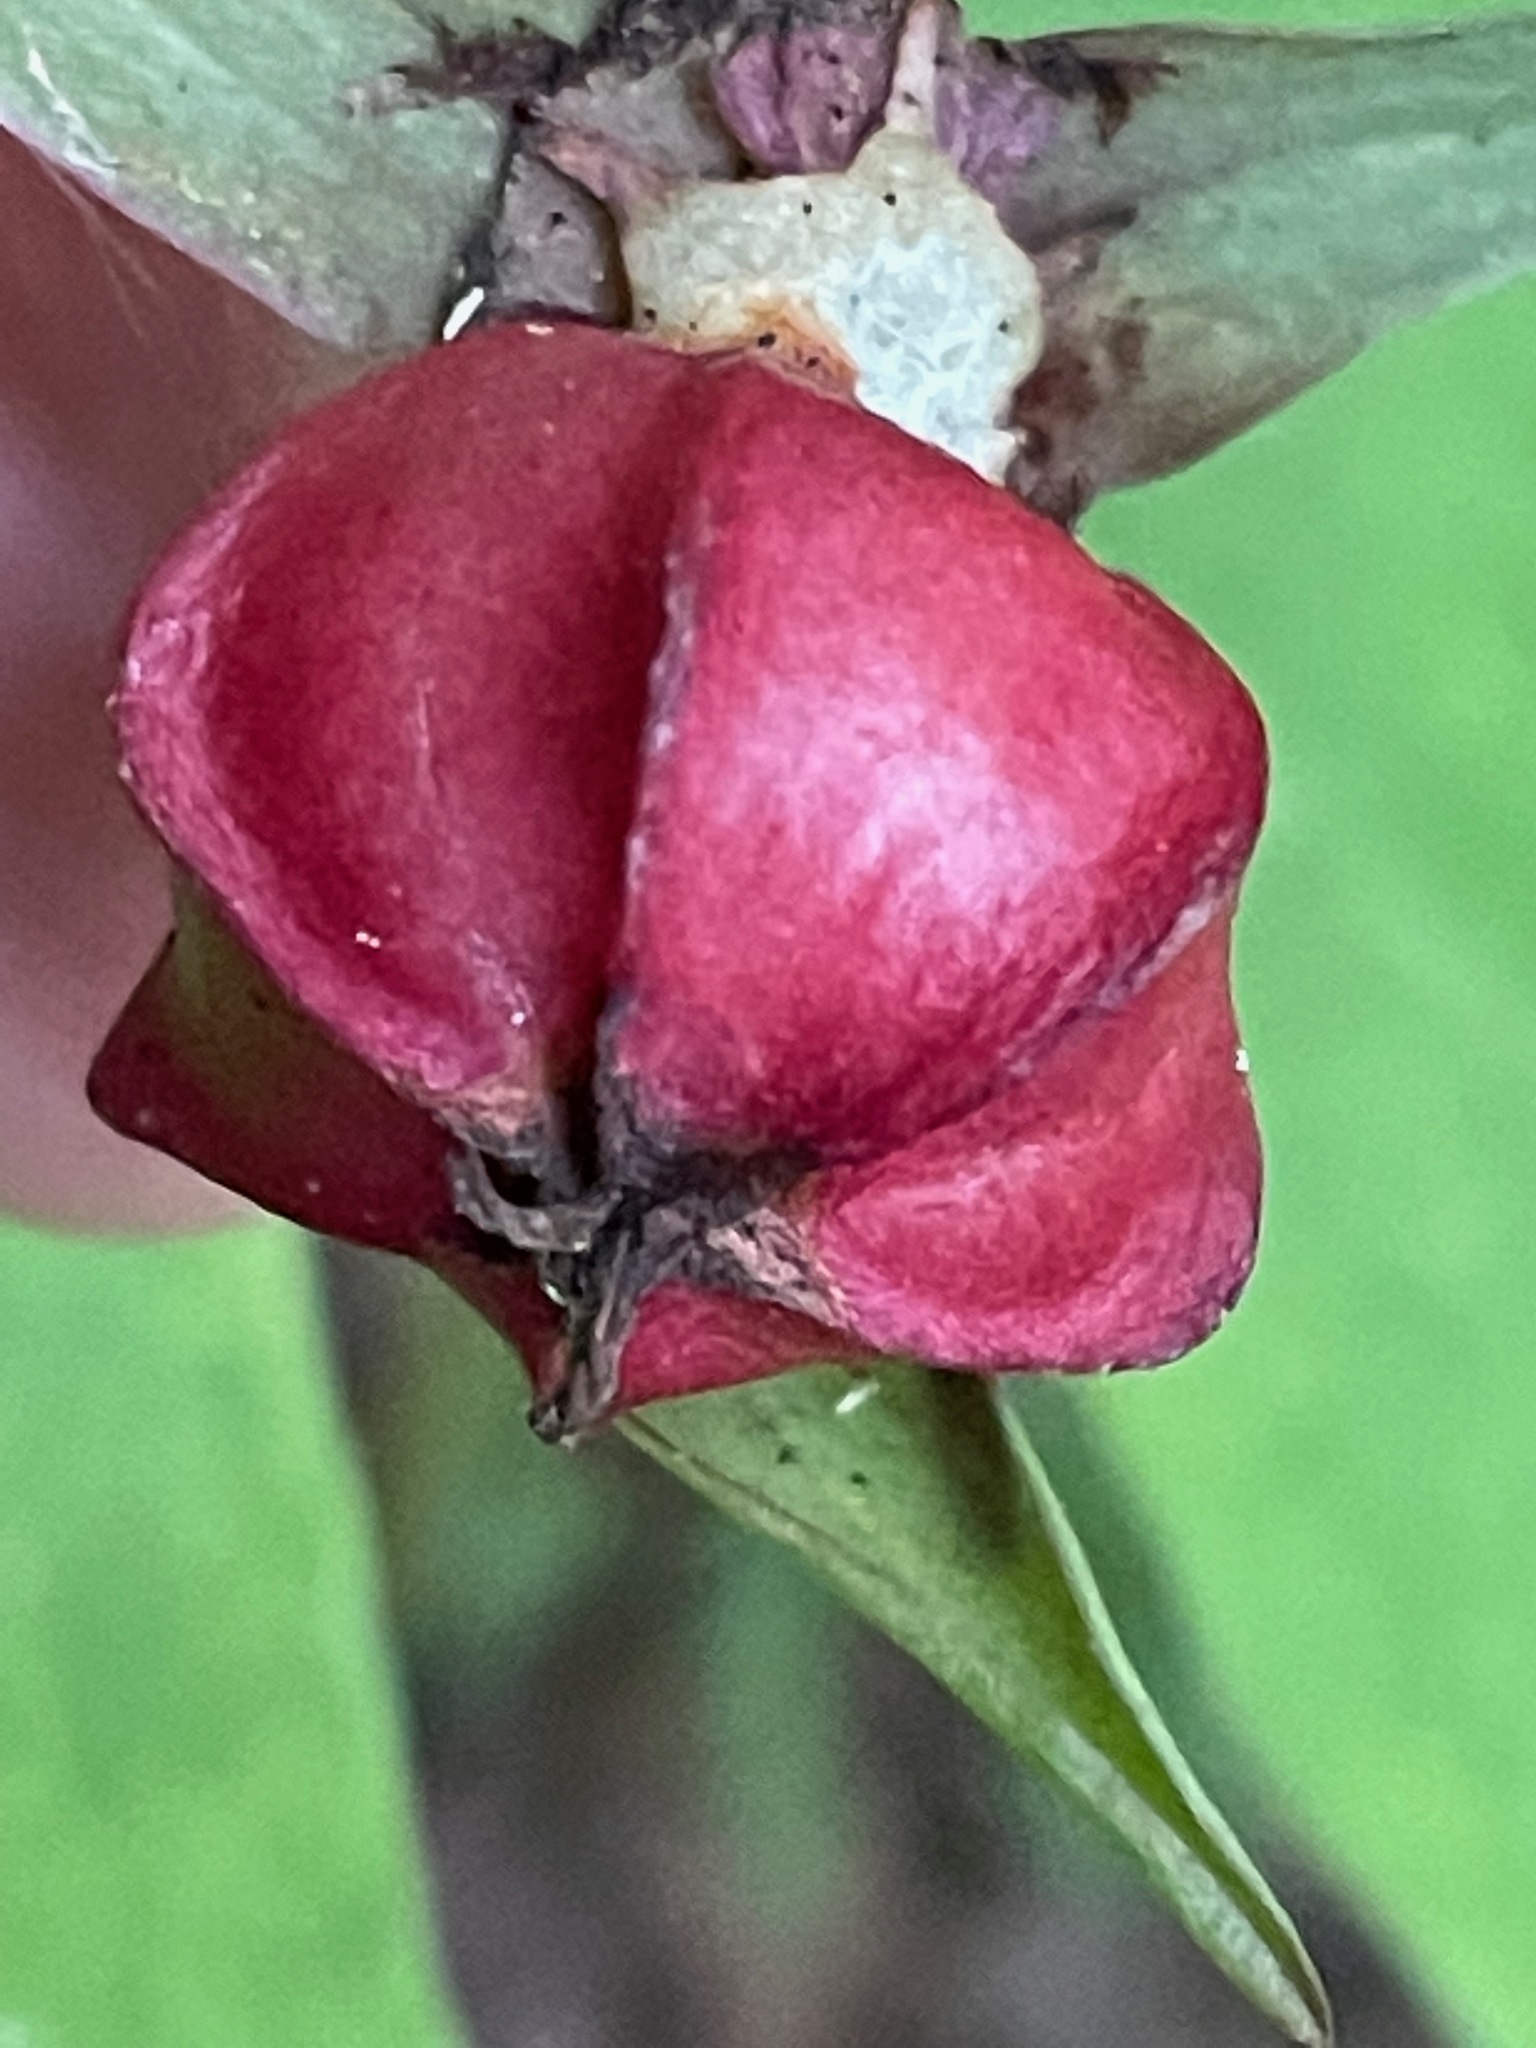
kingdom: Plantae
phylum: Tracheophyta
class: Liliopsida
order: Liliales
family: Melanthiaceae
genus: Trillium
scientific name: Trillium erectum
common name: Purple trillium
